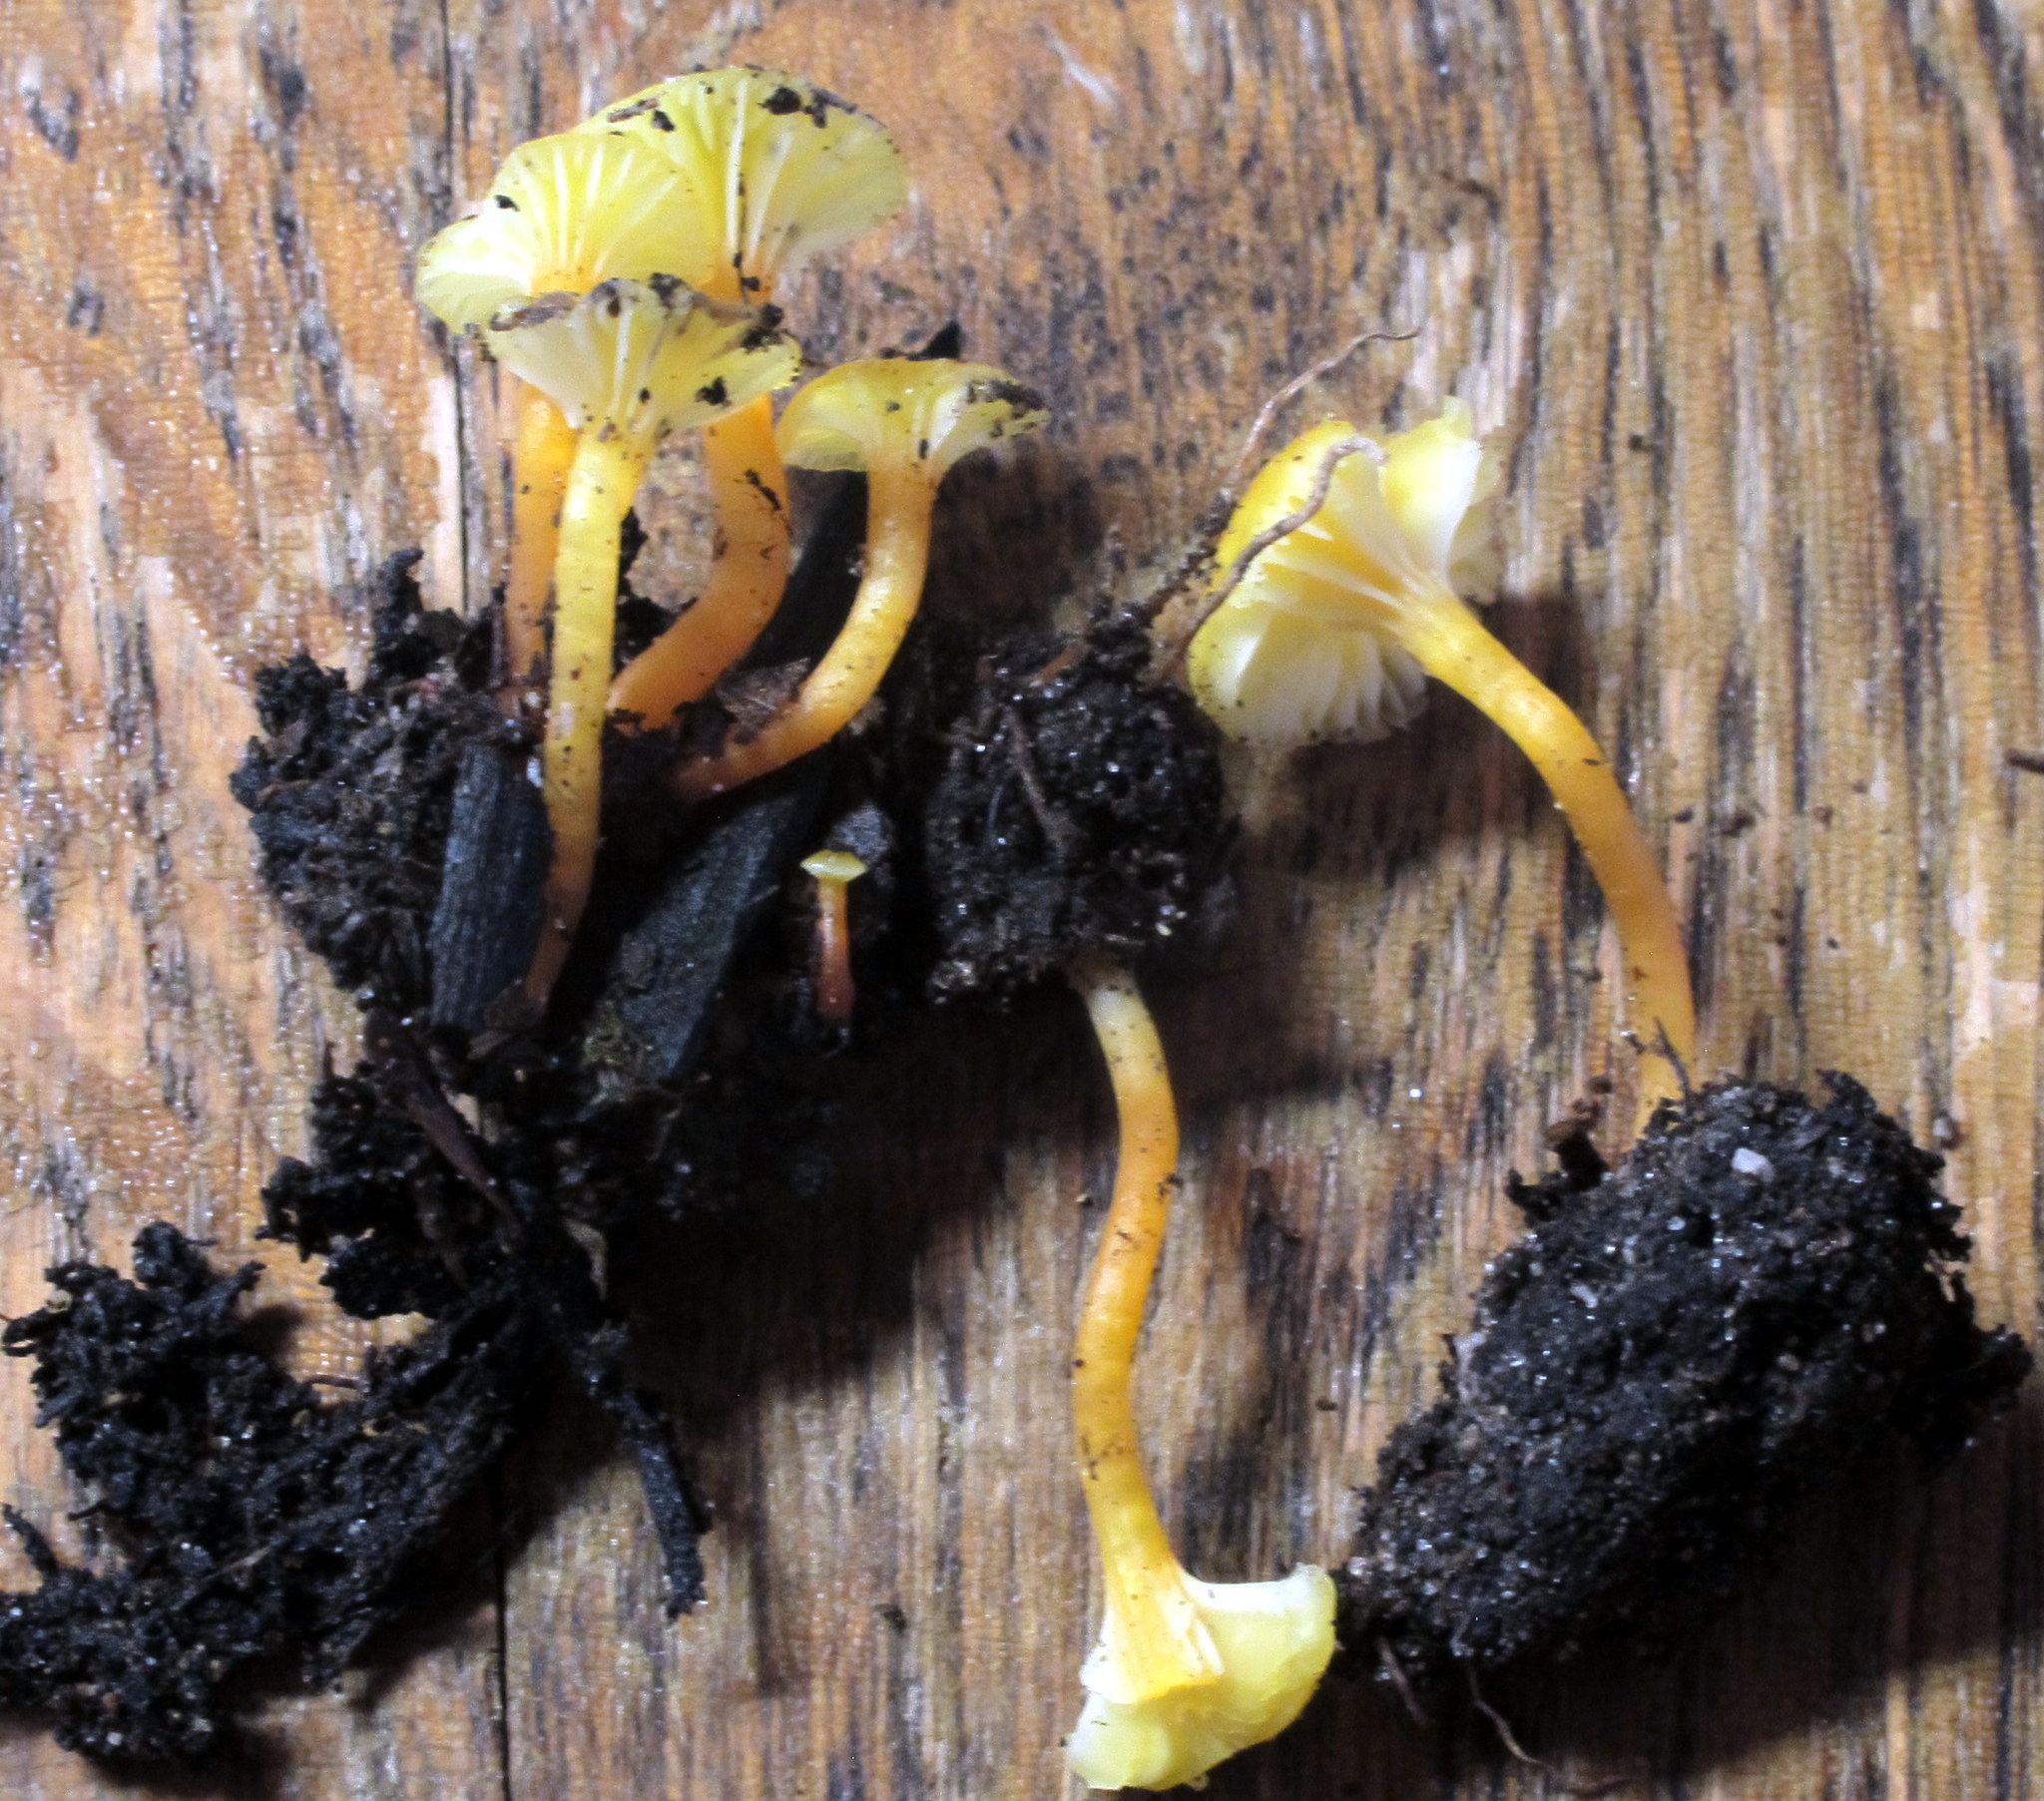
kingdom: Fungi
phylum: Basidiomycota
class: Agaricomycetes
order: Agaricales
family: Hygrophoraceae
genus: Hygrocybe
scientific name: Hygrocybe parvula
